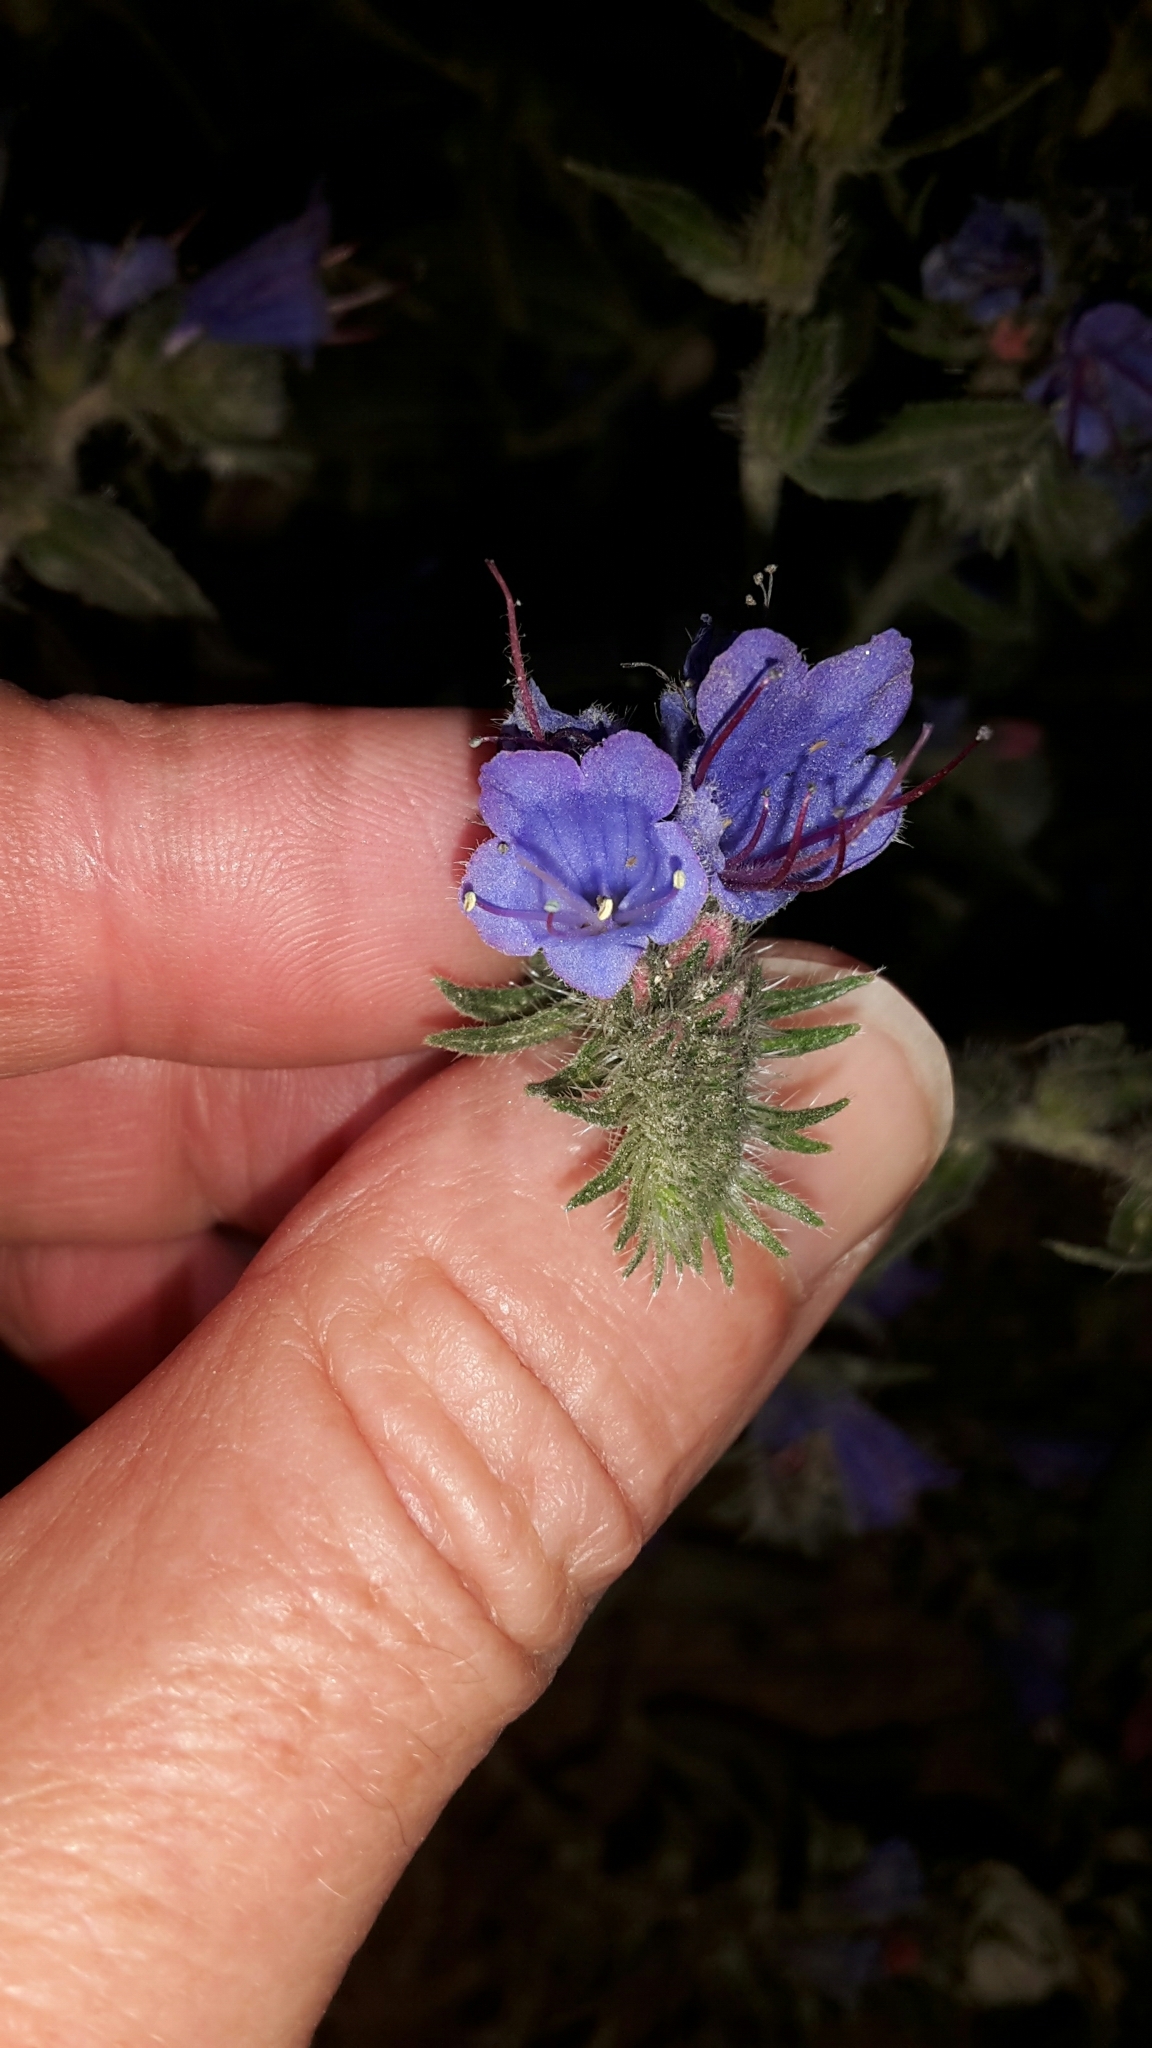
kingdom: Plantae
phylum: Tracheophyta
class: Magnoliopsida
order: Boraginales
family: Boraginaceae
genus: Echium
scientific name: Echium vulgare
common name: Common viper's bugloss
